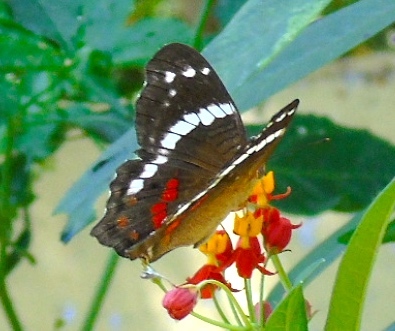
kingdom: Animalia
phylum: Arthropoda
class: Insecta
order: Lepidoptera
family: Nymphalidae
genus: Anartia
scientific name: Anartia fatima
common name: Banded peacock
